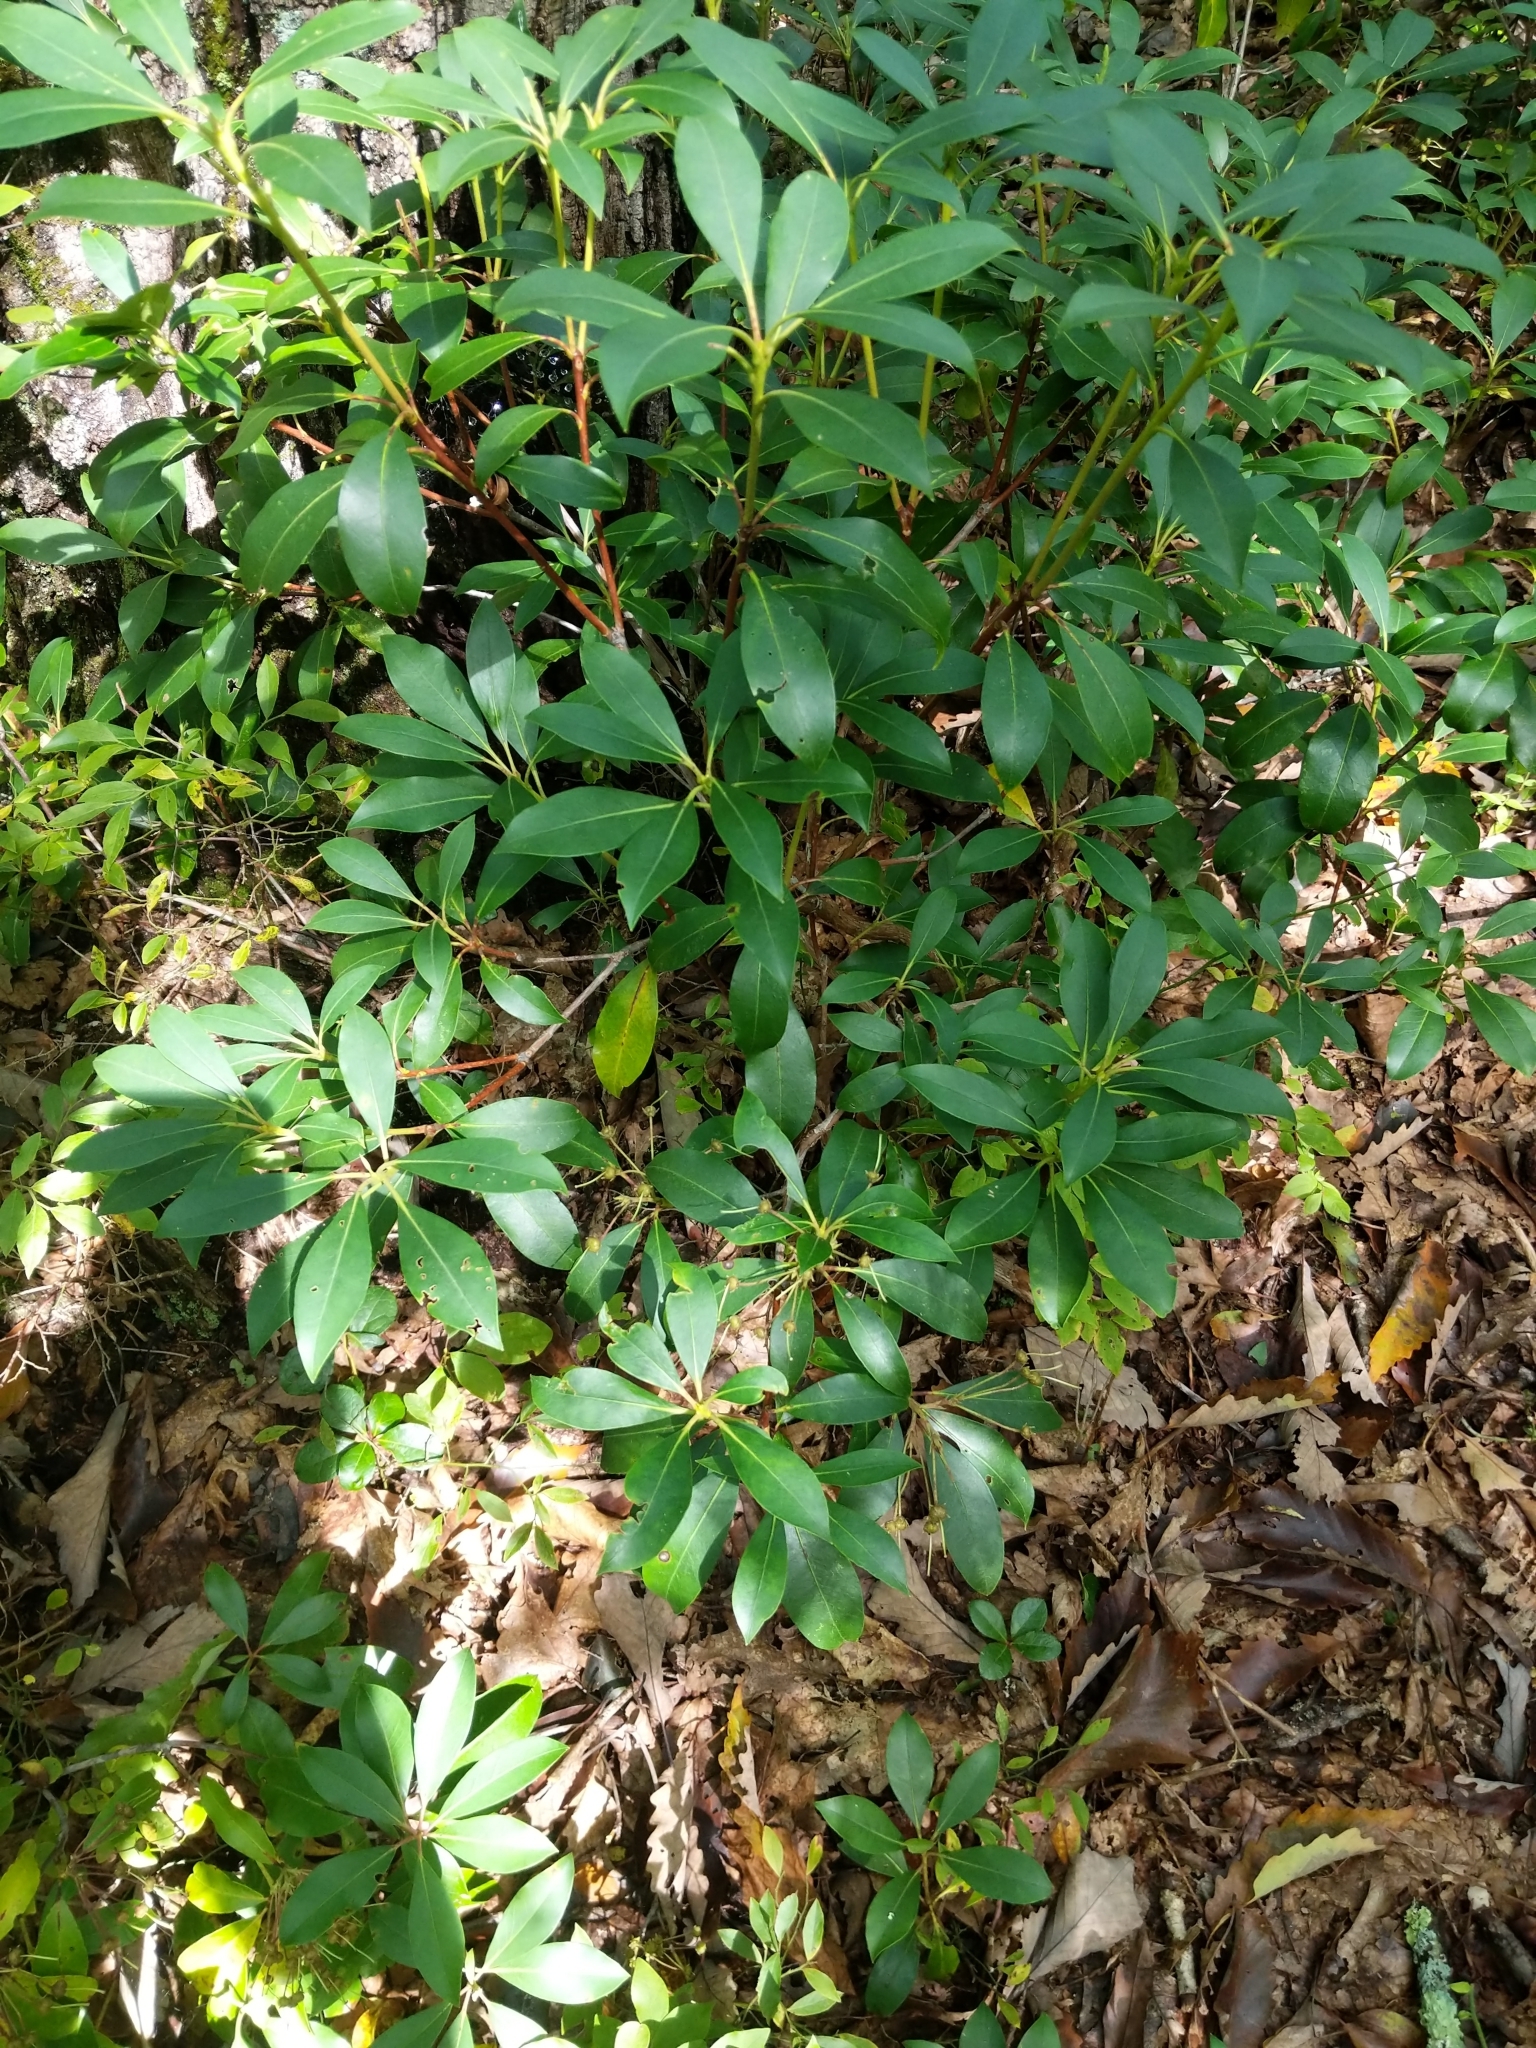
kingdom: Plantae
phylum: Tracheophyta
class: Magnoliopsida
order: Ericales
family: Ericaceae
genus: Kalmia
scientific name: Kalmia latifolia
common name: Mountain-laurel
